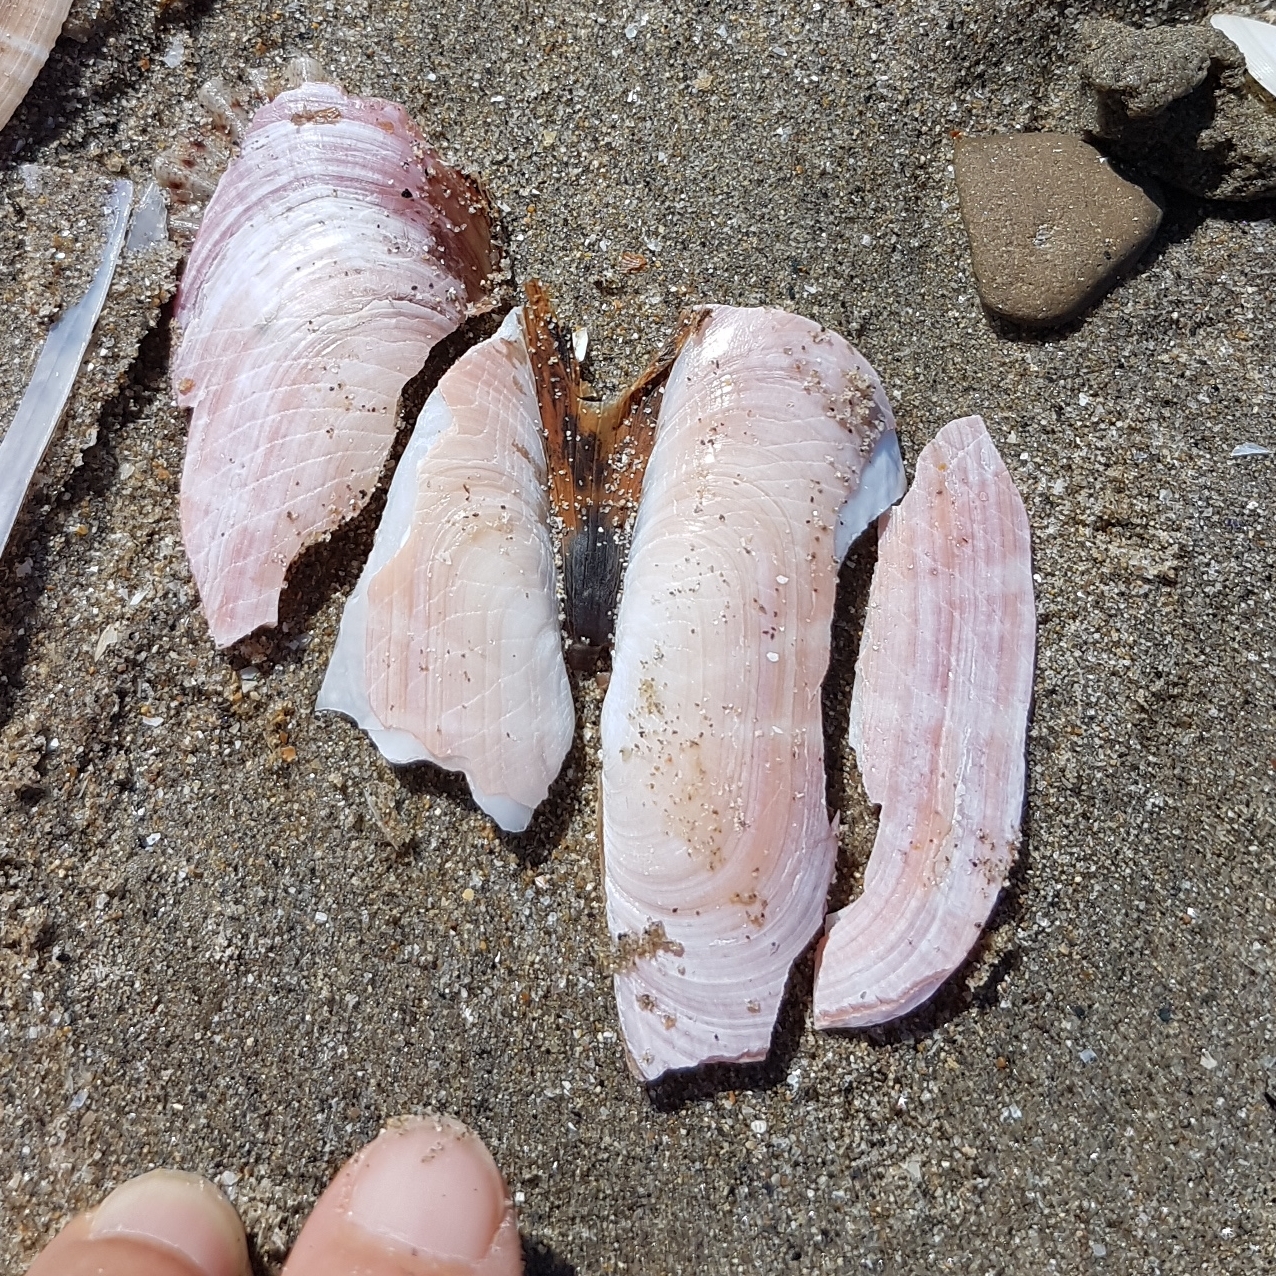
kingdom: Animalia
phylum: Mollusca
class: Bivalvia
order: Cardiida
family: Solecurtidae
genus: Solecurtus
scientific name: Solecurtus strigilatus
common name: Rosy razor clam
